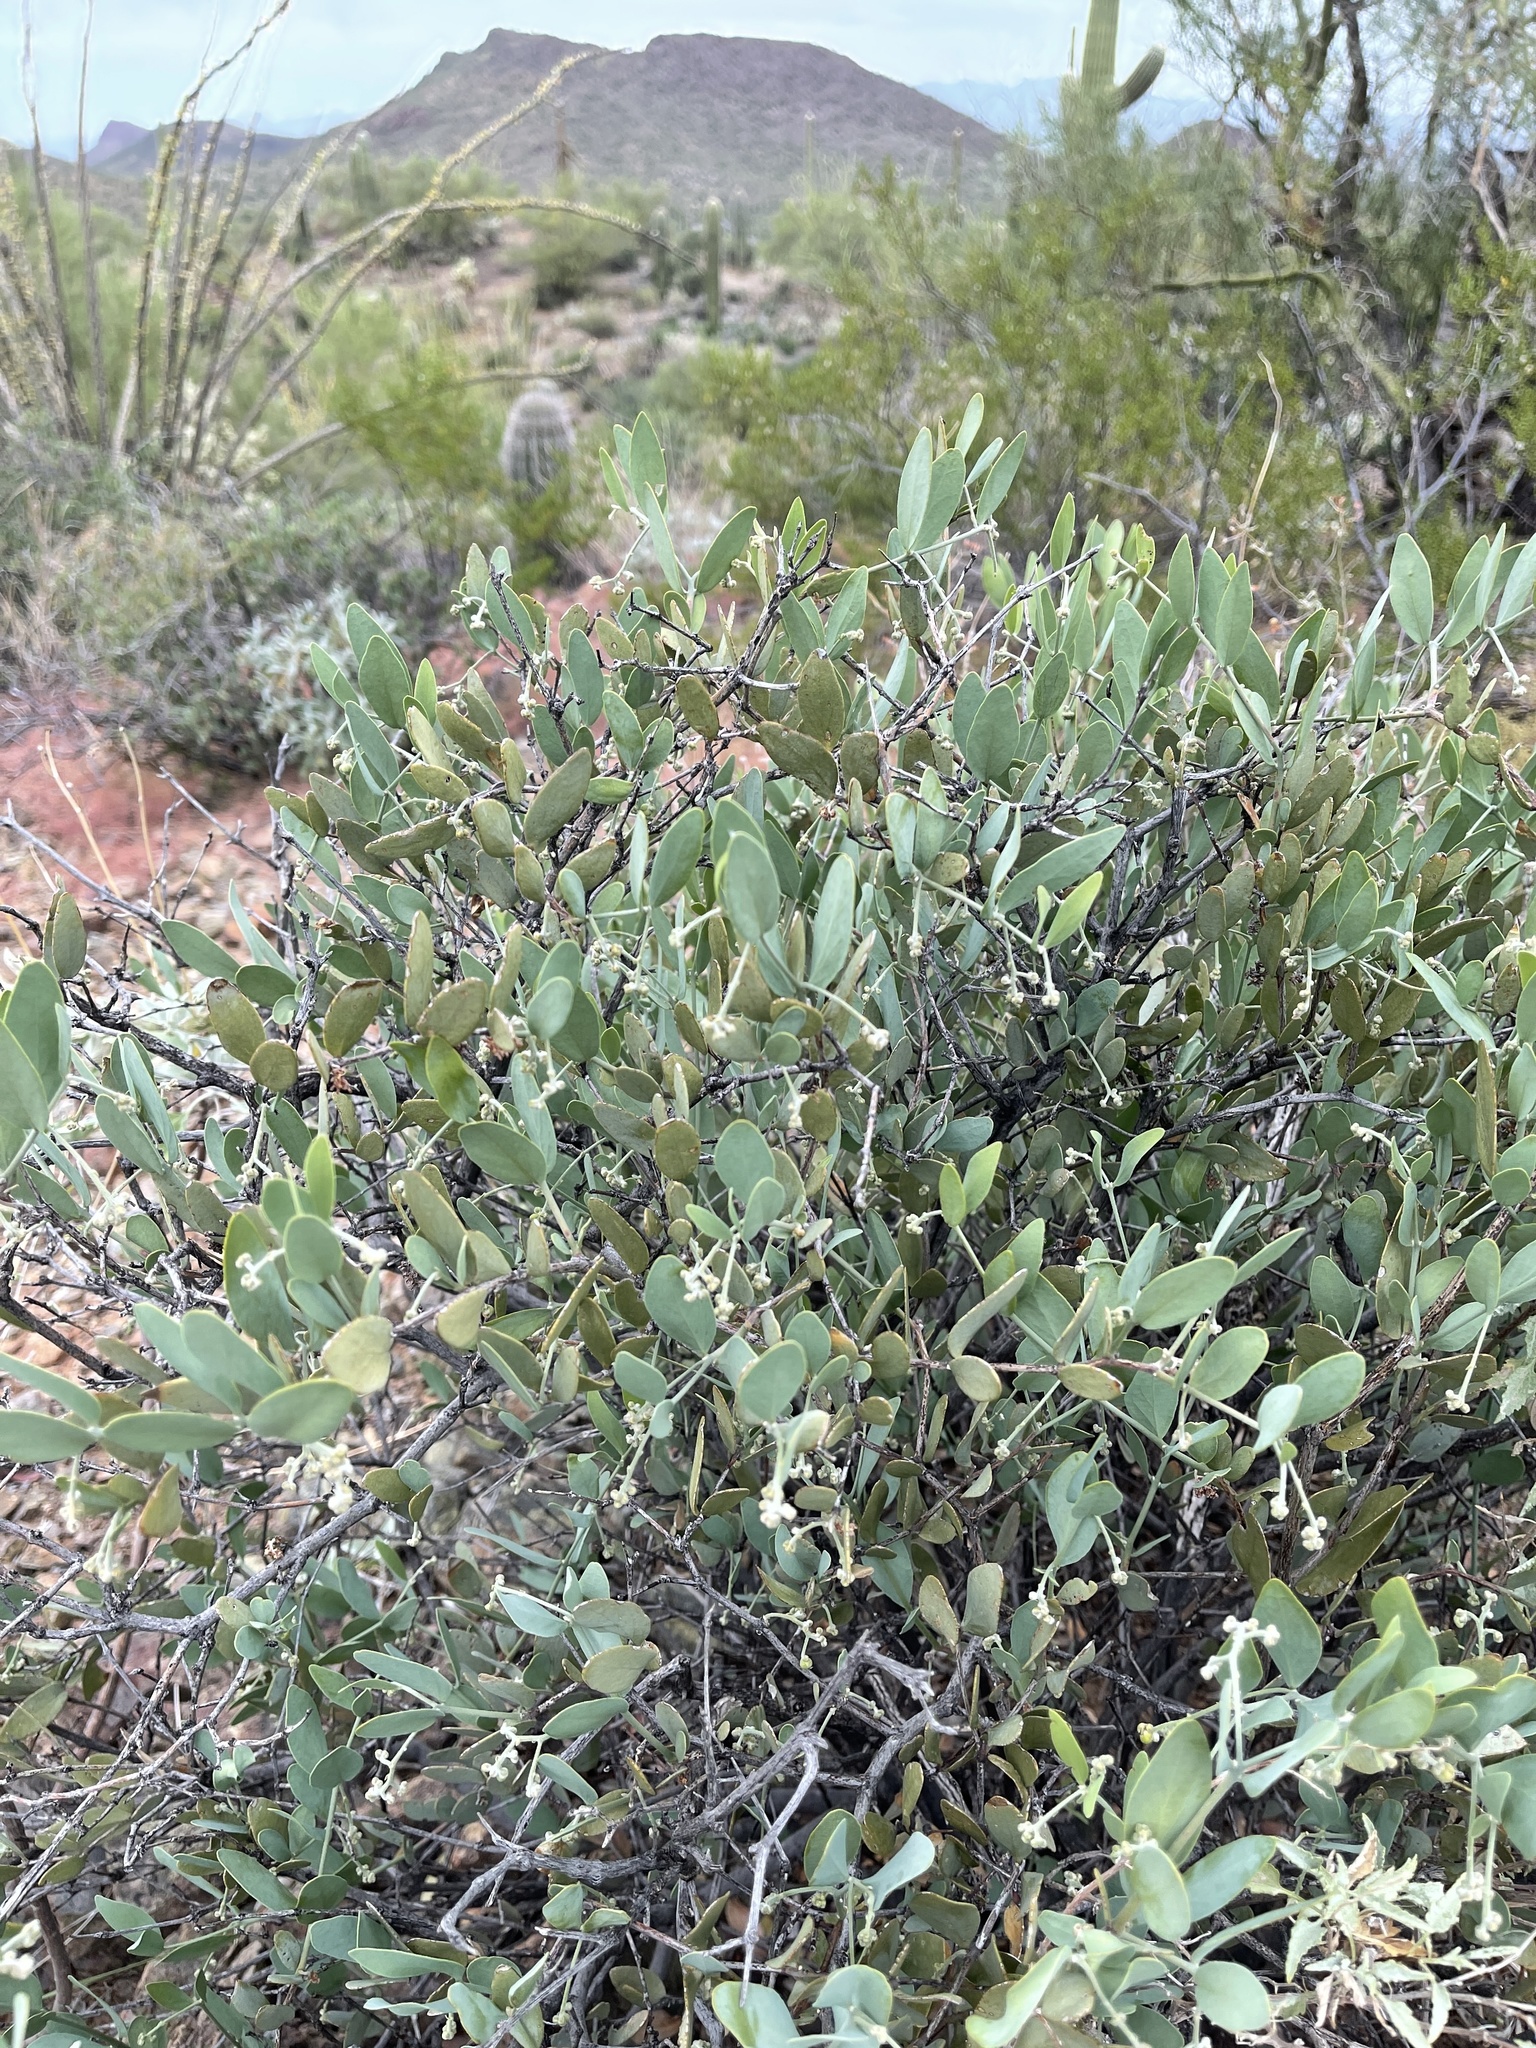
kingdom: Plantae
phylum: Tracheophyta
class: Magnoliopsida
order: Caryophyllales
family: Simmondsiaceae
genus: Simmondsia
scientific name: Simmondsia chinensis
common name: Jojoba
